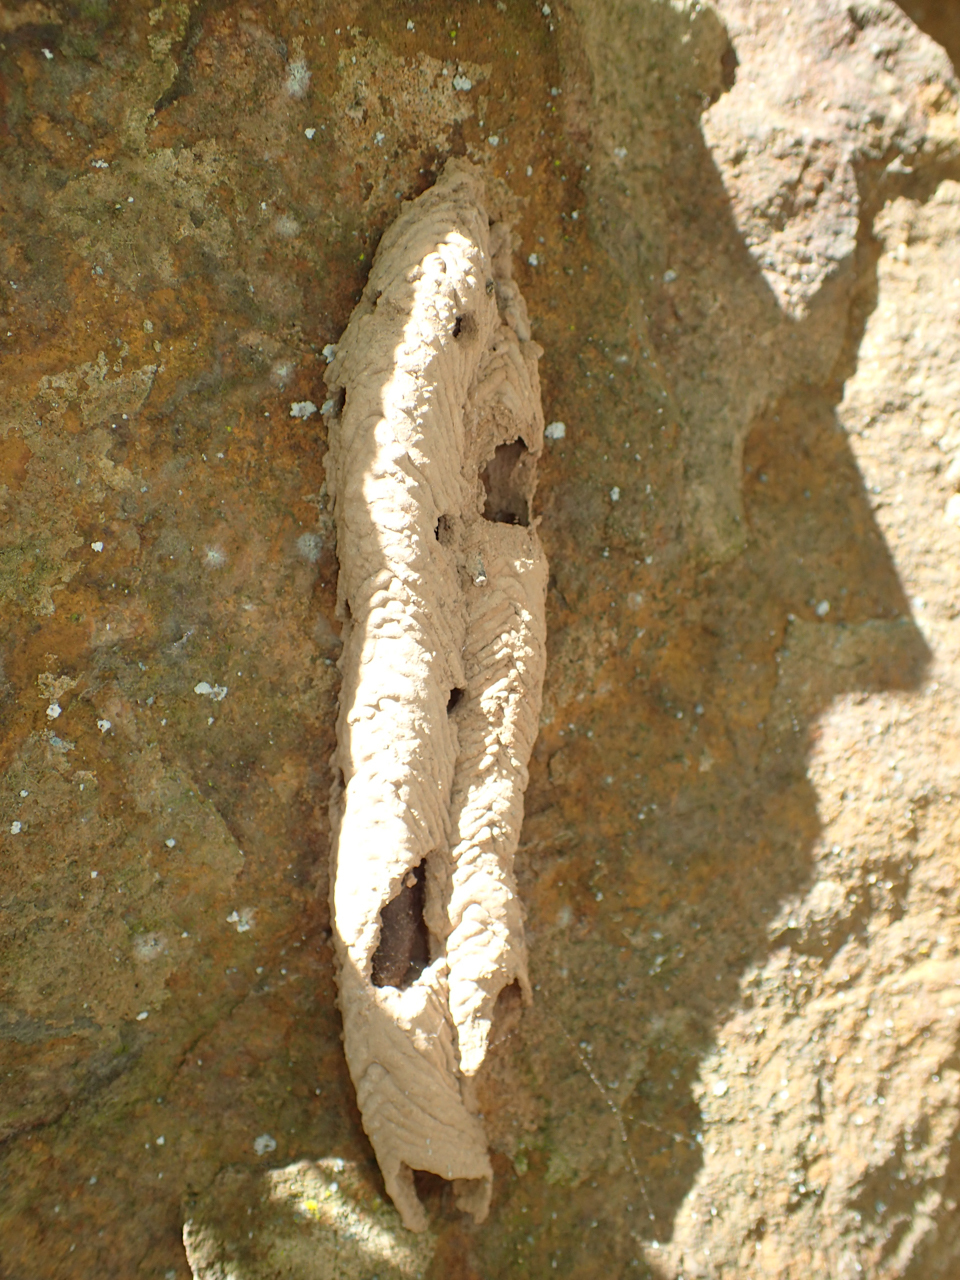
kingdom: Animalia
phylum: Arthropoda
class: Insecta
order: Hymenoptera
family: Crabronidae
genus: Trypoxylon
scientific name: Trypoxylon politum
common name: Organ-pipe mud-dauber wasp
